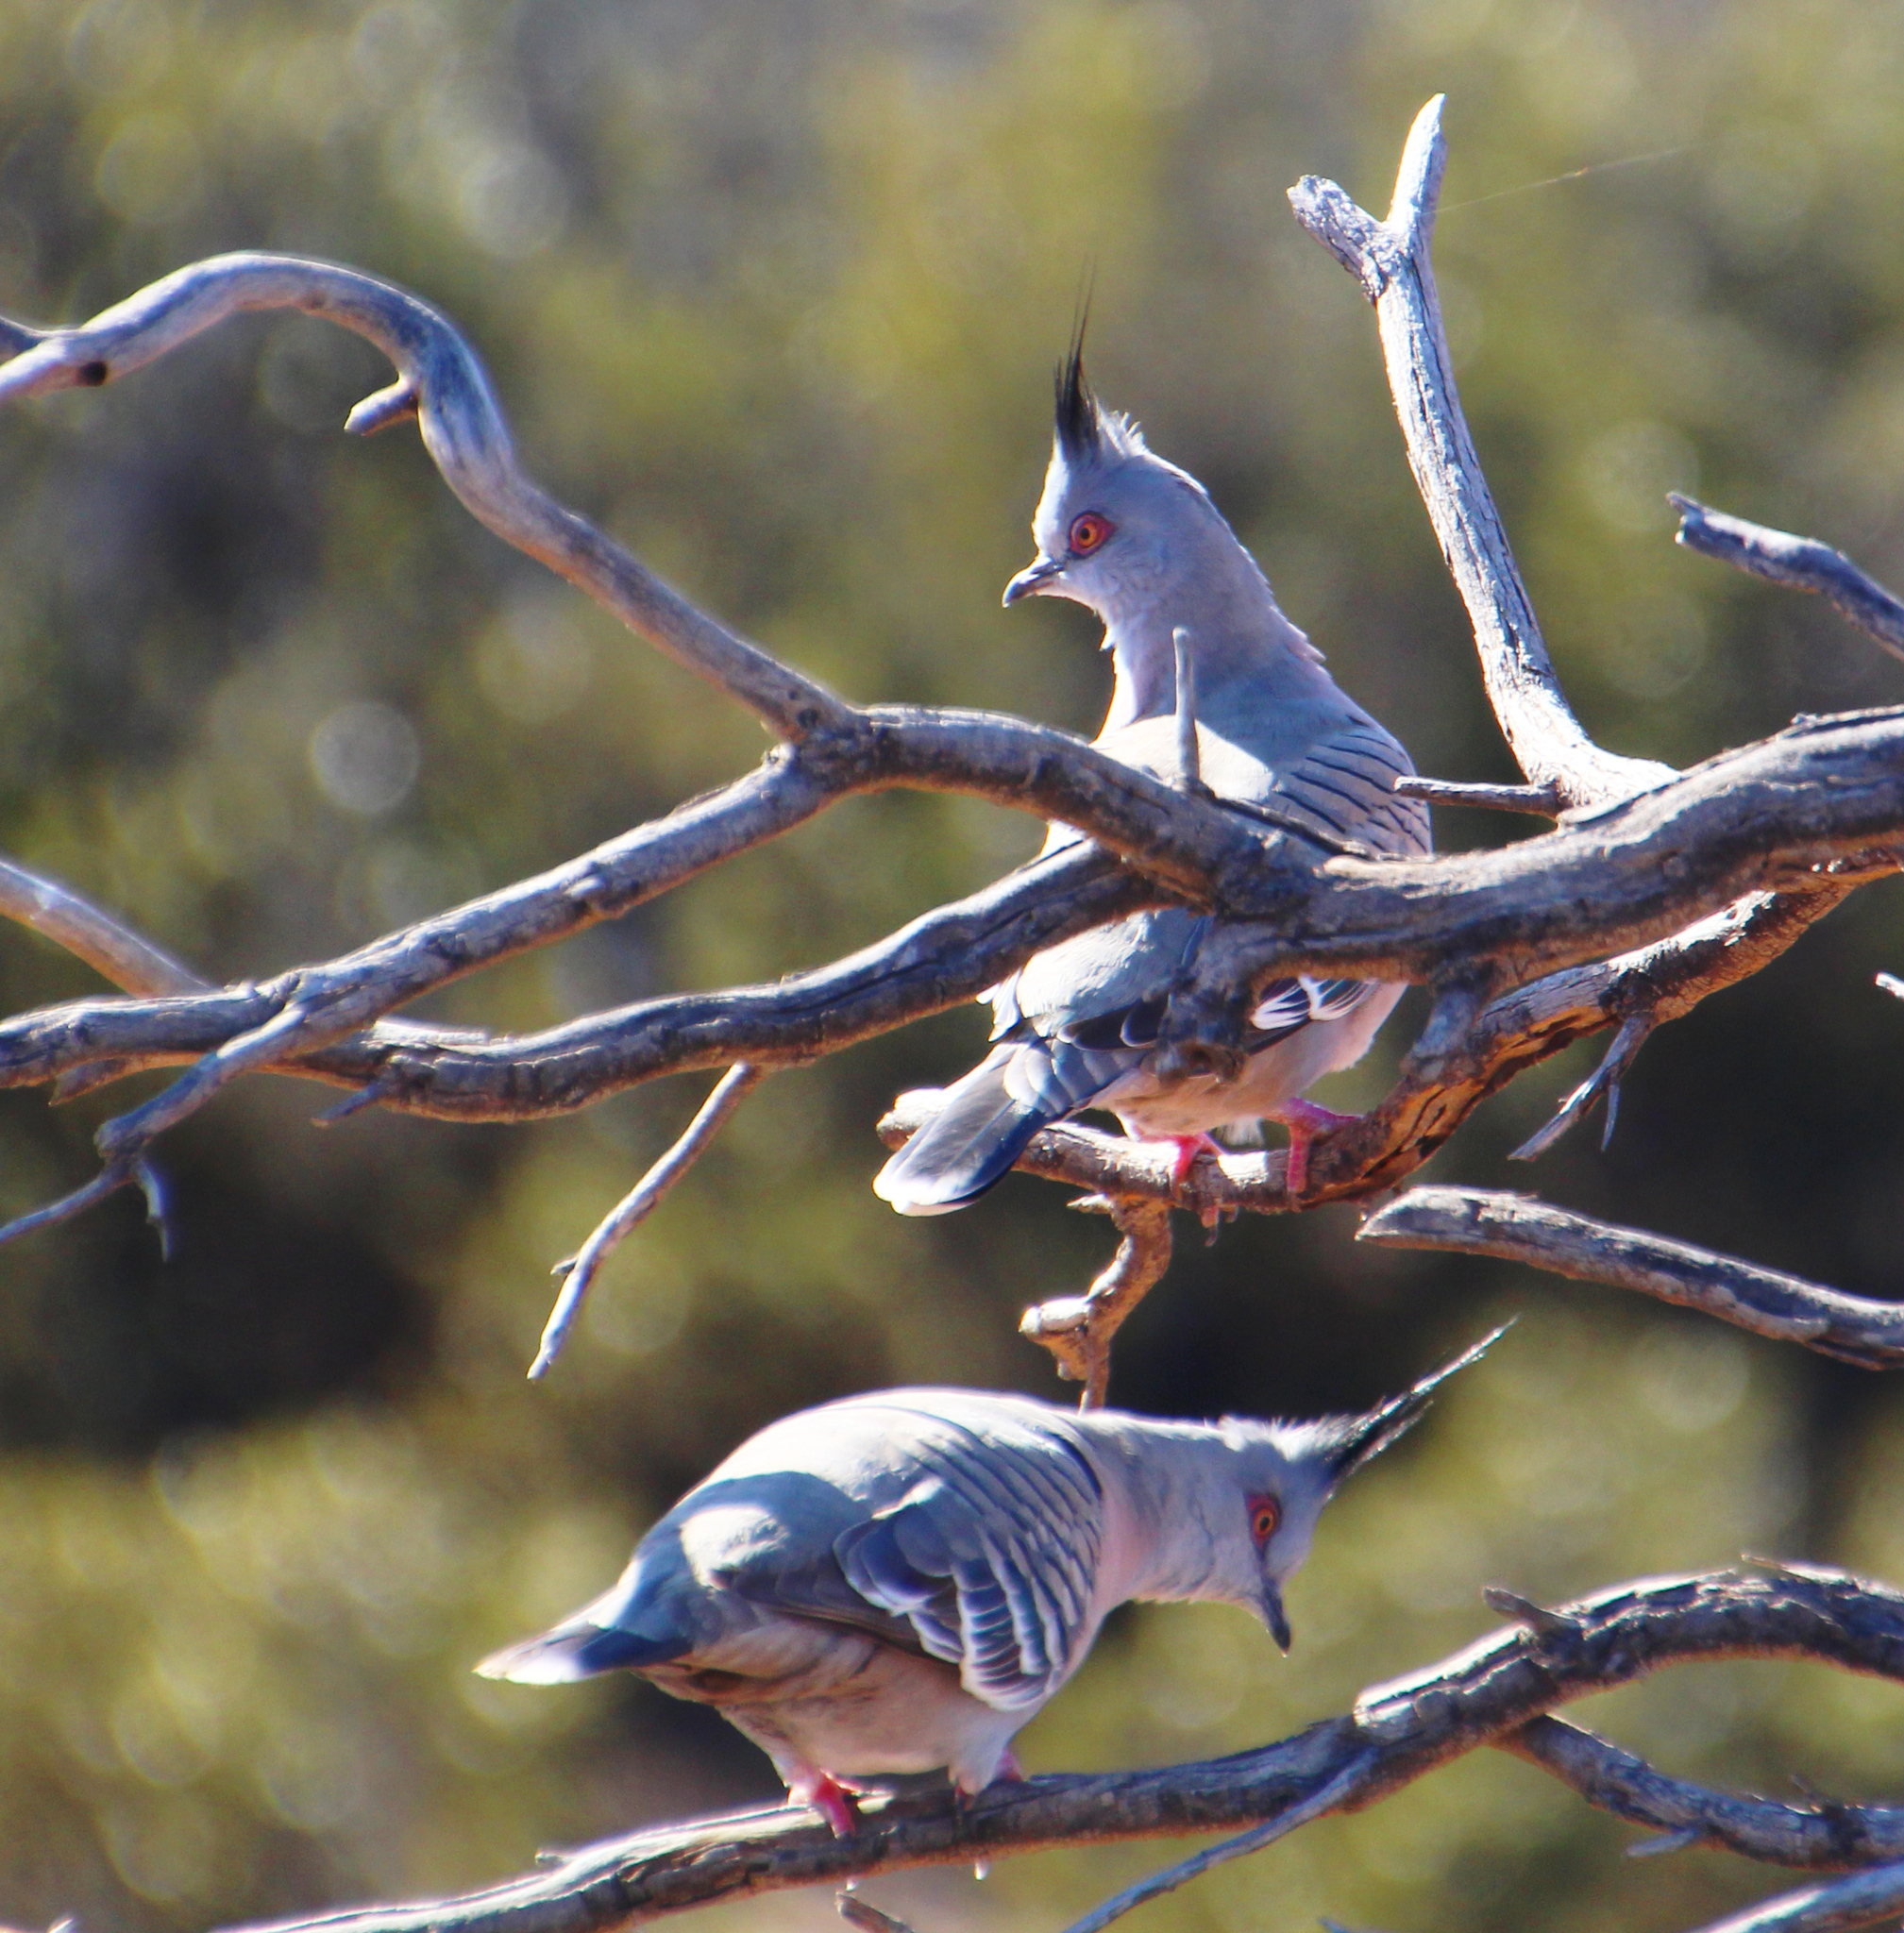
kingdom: Animalia
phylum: Chordata
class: Aves
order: Columbiformes
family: Columbidae
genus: Ocyphaps
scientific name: Ocyphaps lophotes
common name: Crested pigeon
